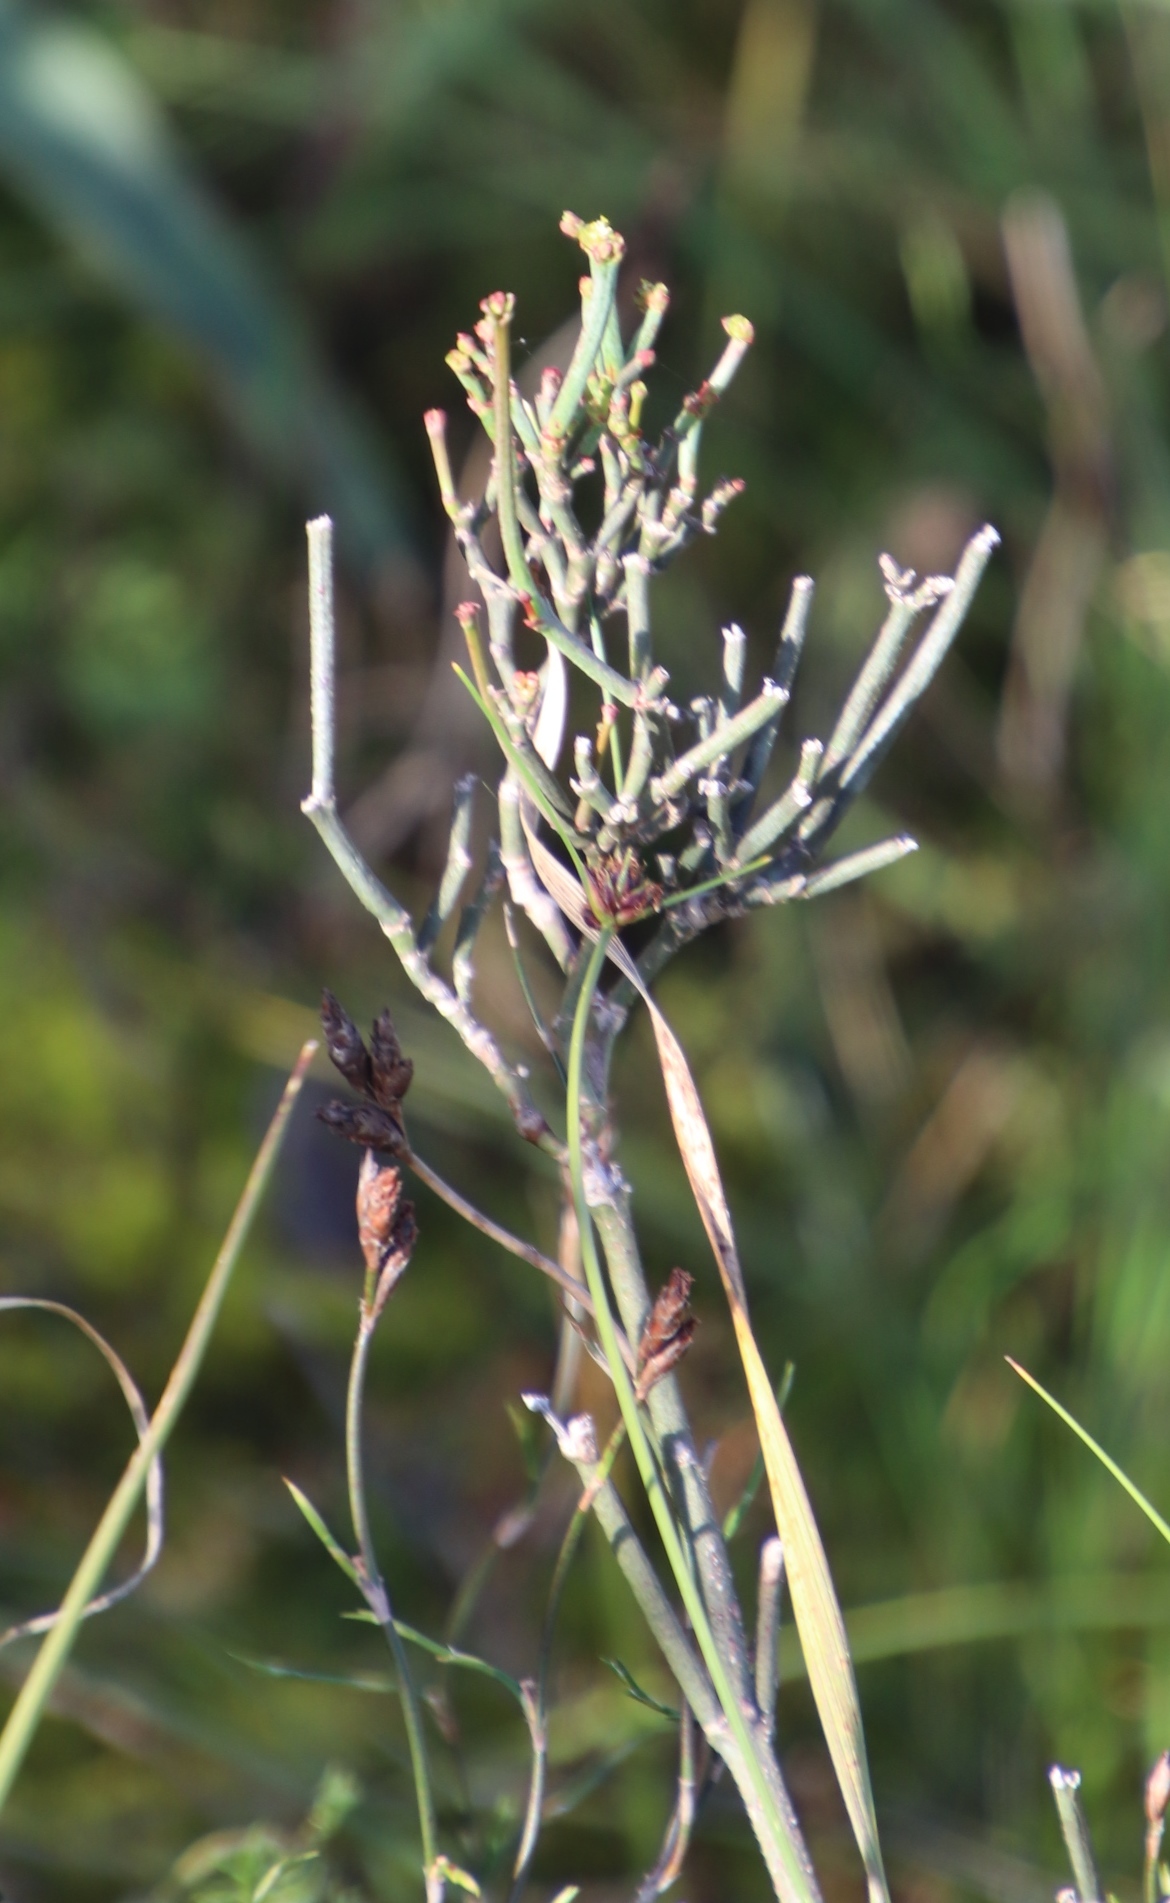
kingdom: Plantae
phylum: Tracheophyta
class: Magnoliopsida
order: Malpighiales
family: Euphorbiaceae
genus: Euphorbia
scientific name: Euphorbia tenax
